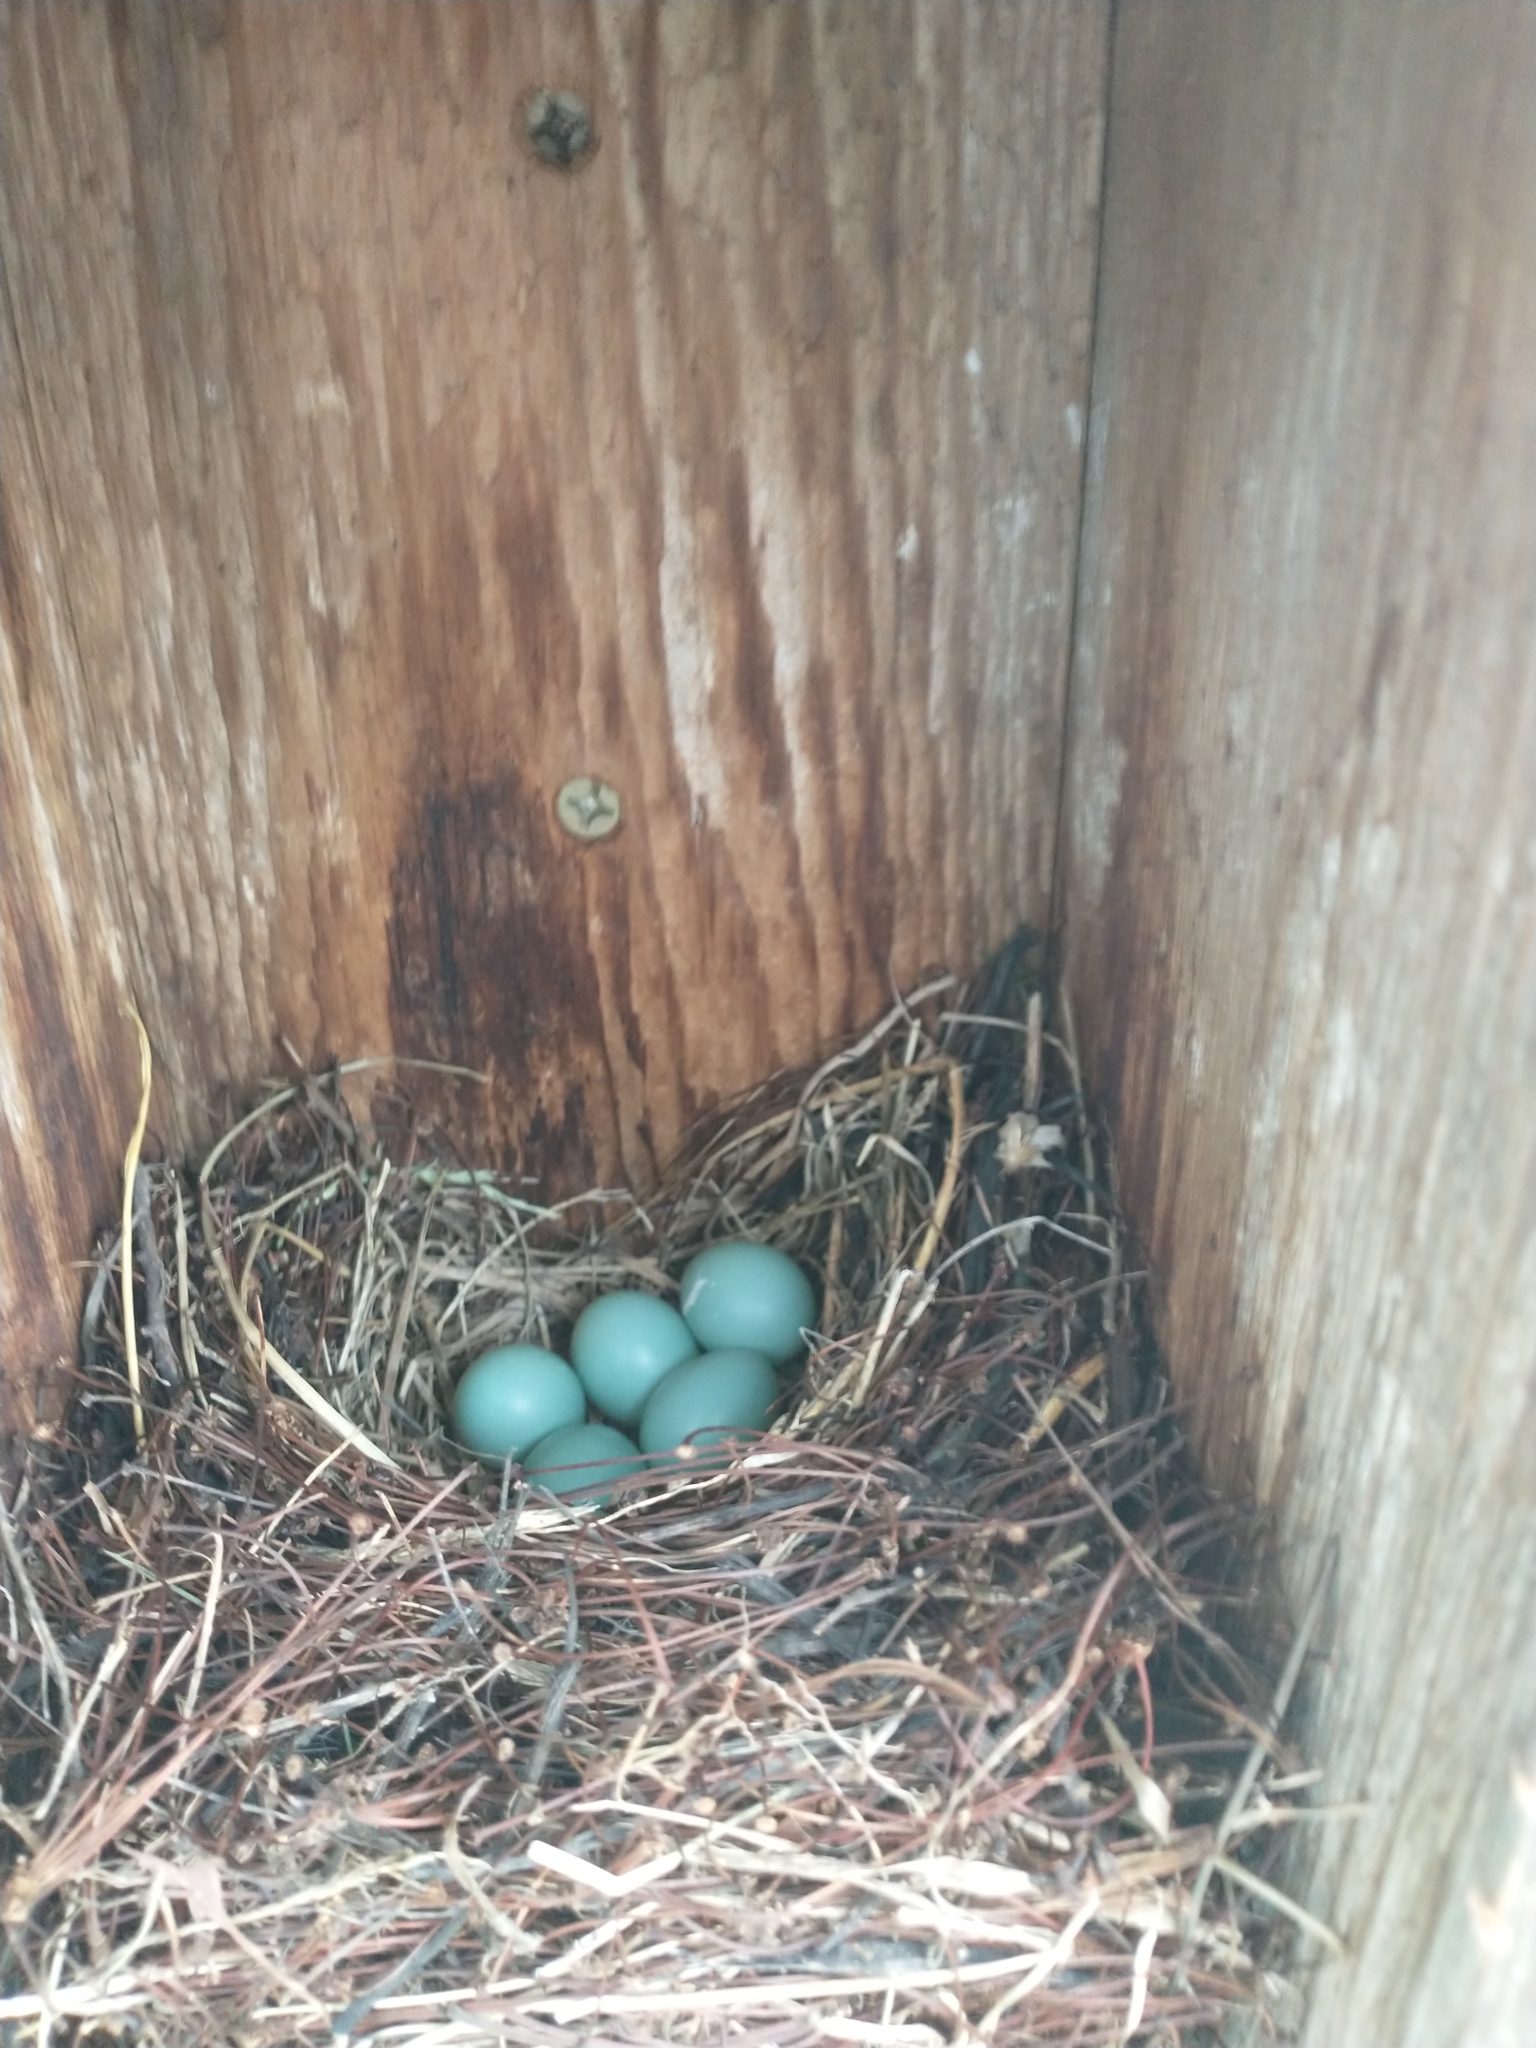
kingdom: Animalia
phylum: Chordata
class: Aves
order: Passeriformes
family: Turdidae
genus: Sialia
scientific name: Sialia sialis
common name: Eastern bluebird
